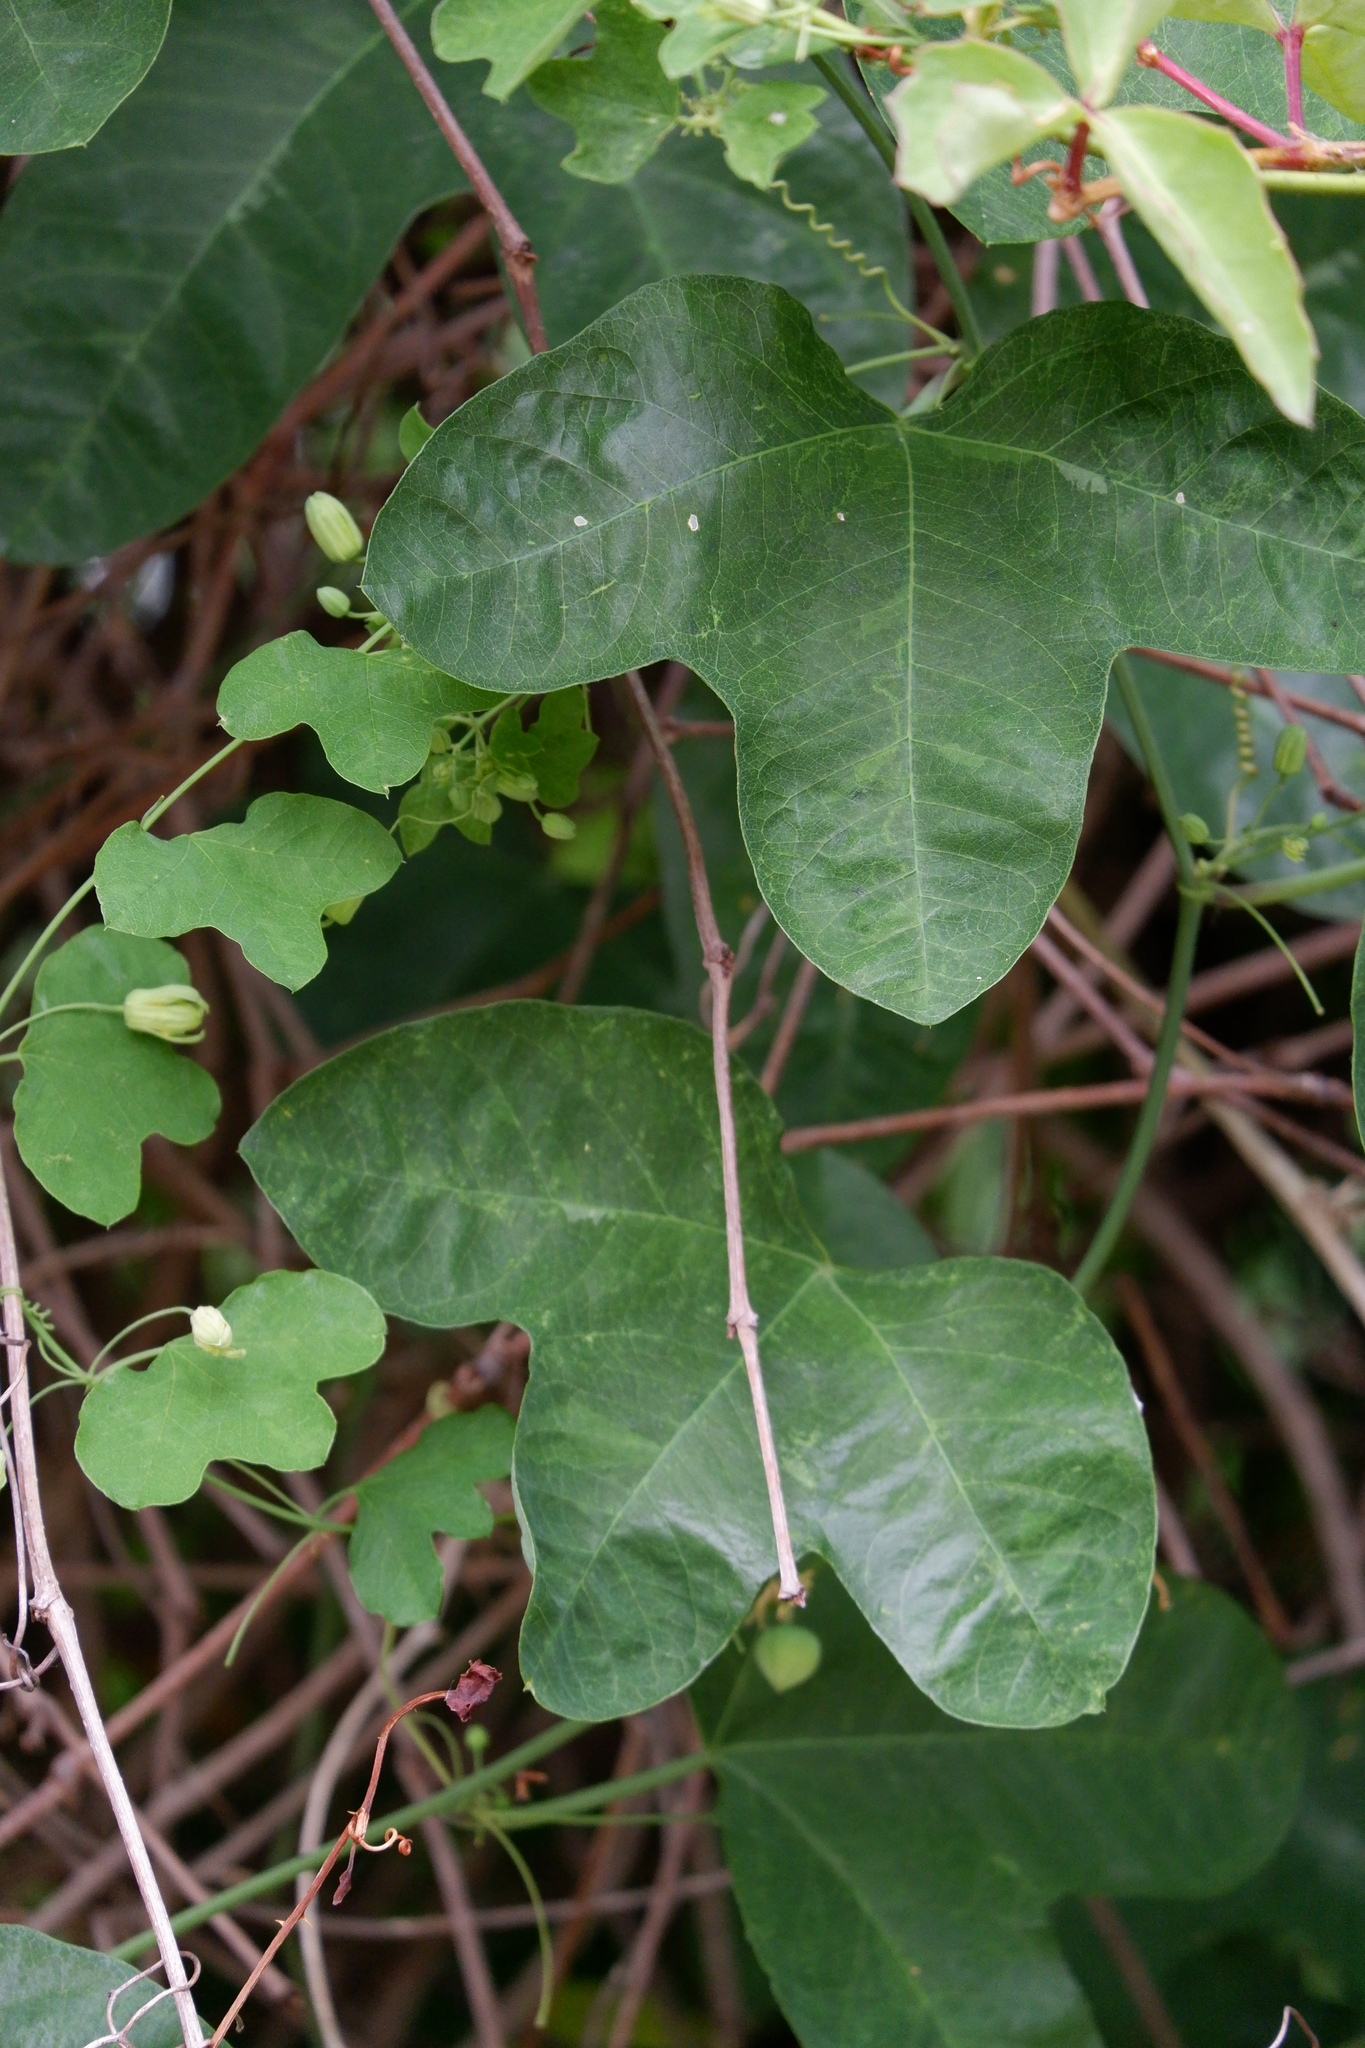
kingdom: Plantae
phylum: Tracheophyta
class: Magnoliopsida
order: Malpighiales
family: Passifloraceae
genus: Passiflora
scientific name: Passiflora lutea
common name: Yellow passionflower
